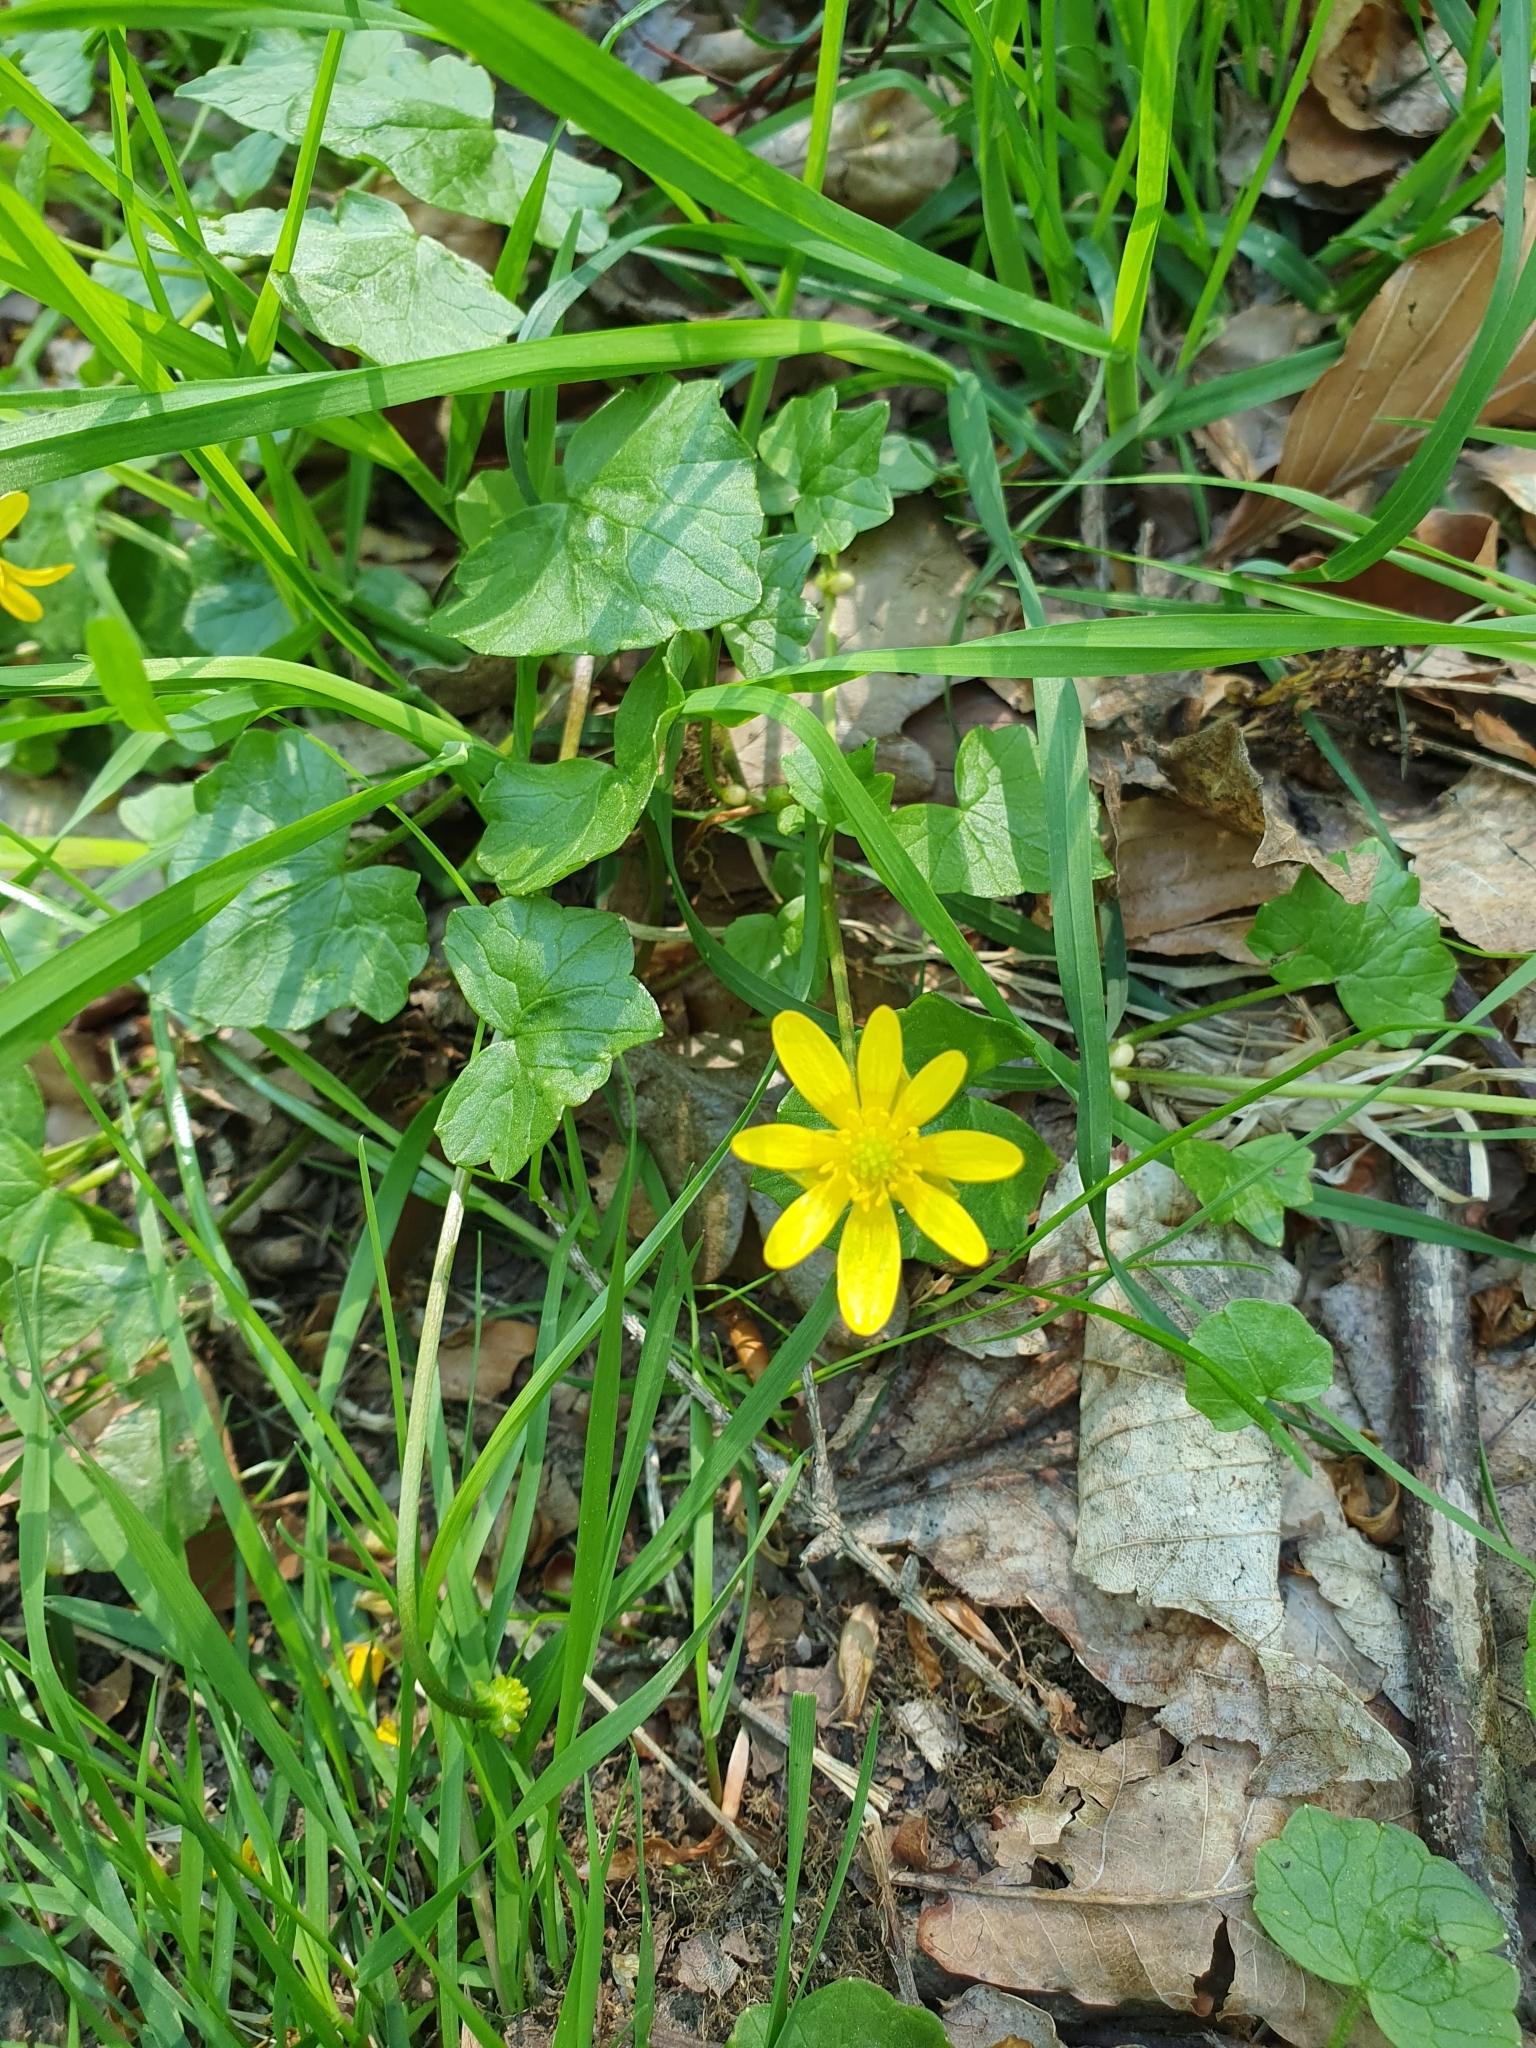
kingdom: Plantae
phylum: Tracheophyta
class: Magnoliopsida
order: Ranunculales
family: Ranunculaceae
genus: Ficaria
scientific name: Ficaria verna
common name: Lesser celandine
